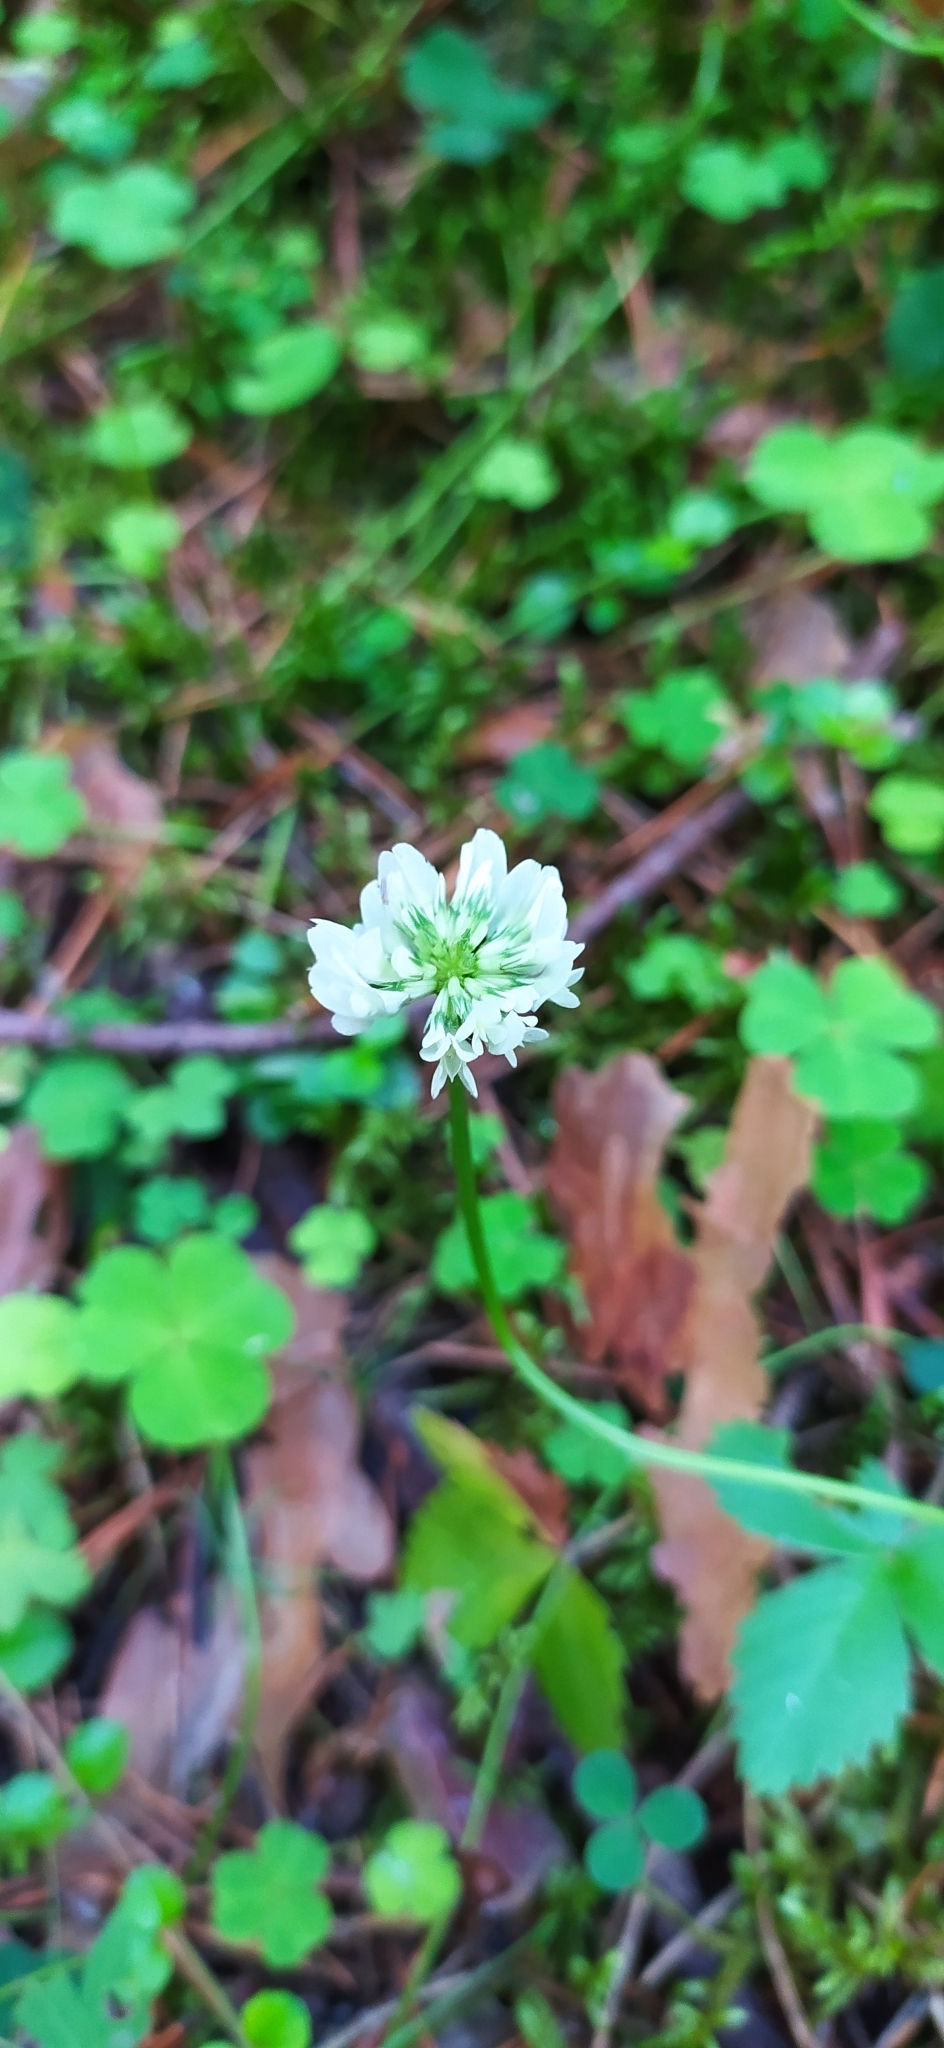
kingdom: Plantae
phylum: Tracheophyta
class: Magnoliopsida
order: Fabales
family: Fabaceae
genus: Trifolium
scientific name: Trifolium repens
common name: White clover
